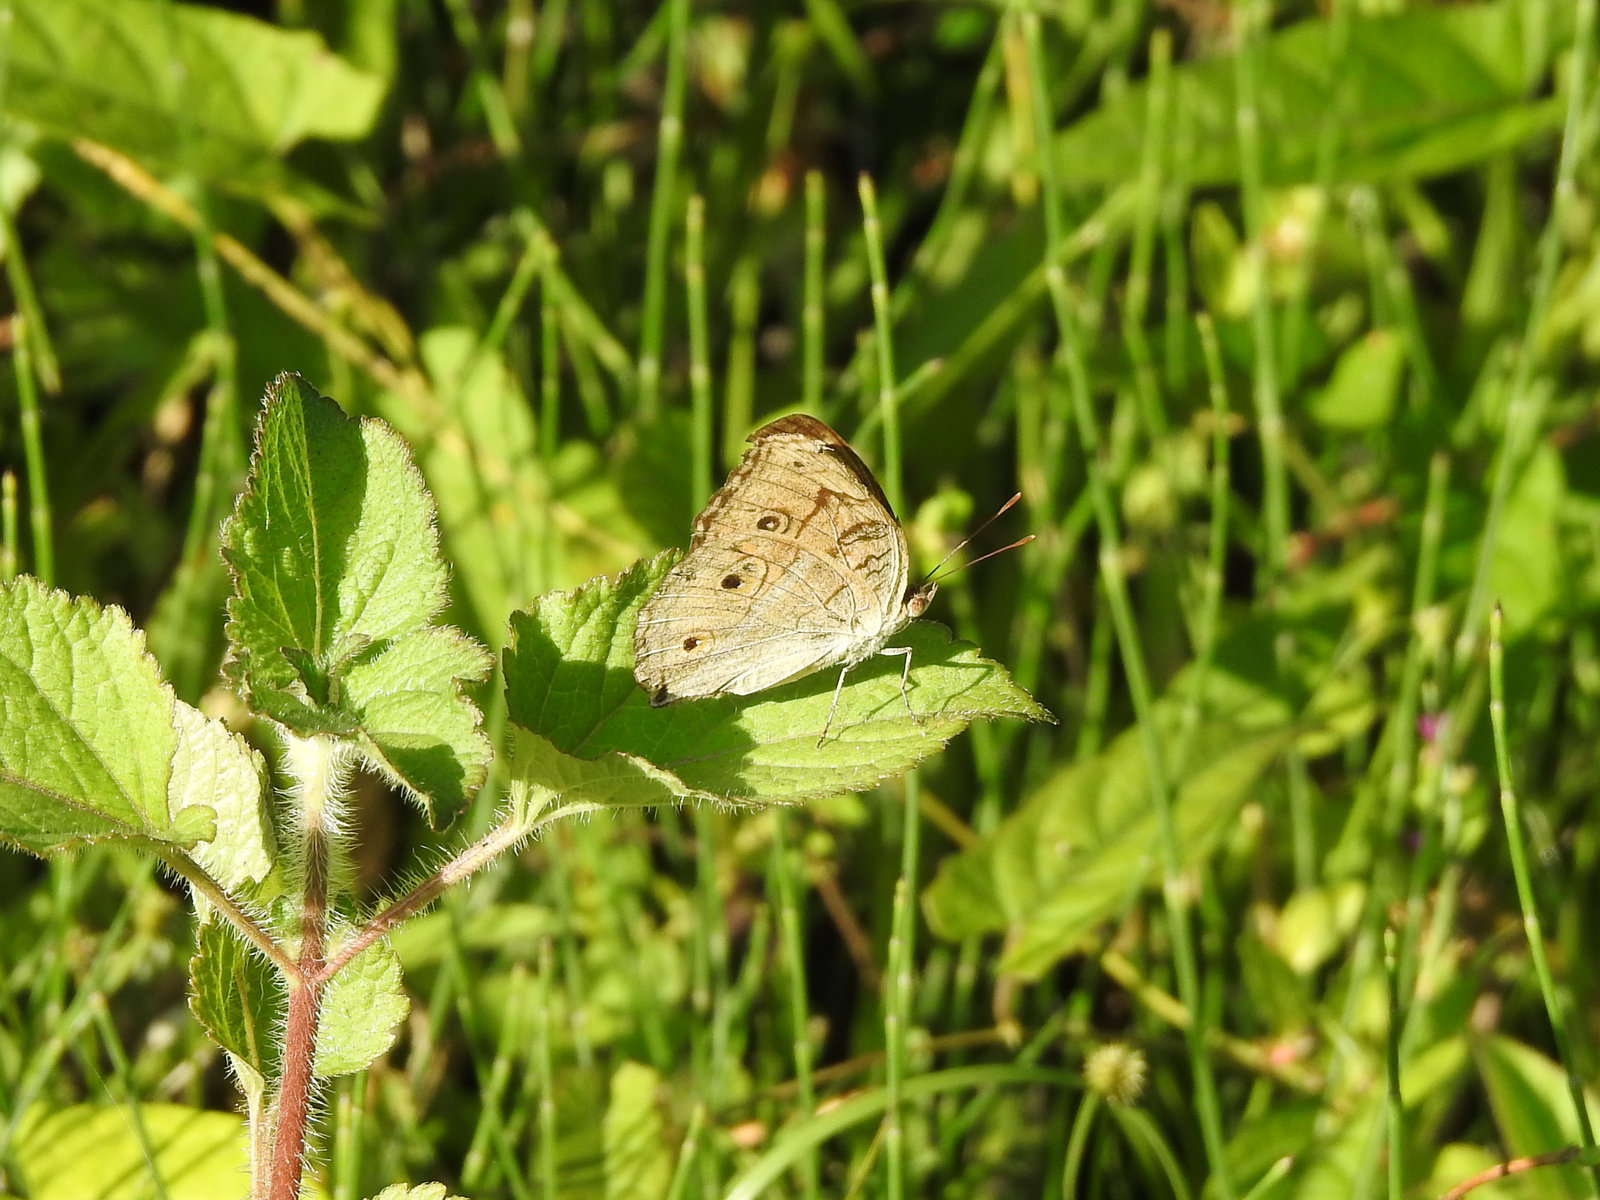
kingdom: Animalia
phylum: Arthropoda
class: Insecta
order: Lepidoptera
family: Nymphalidae
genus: Junonia
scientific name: Junonia almana
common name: Peacock pansy
